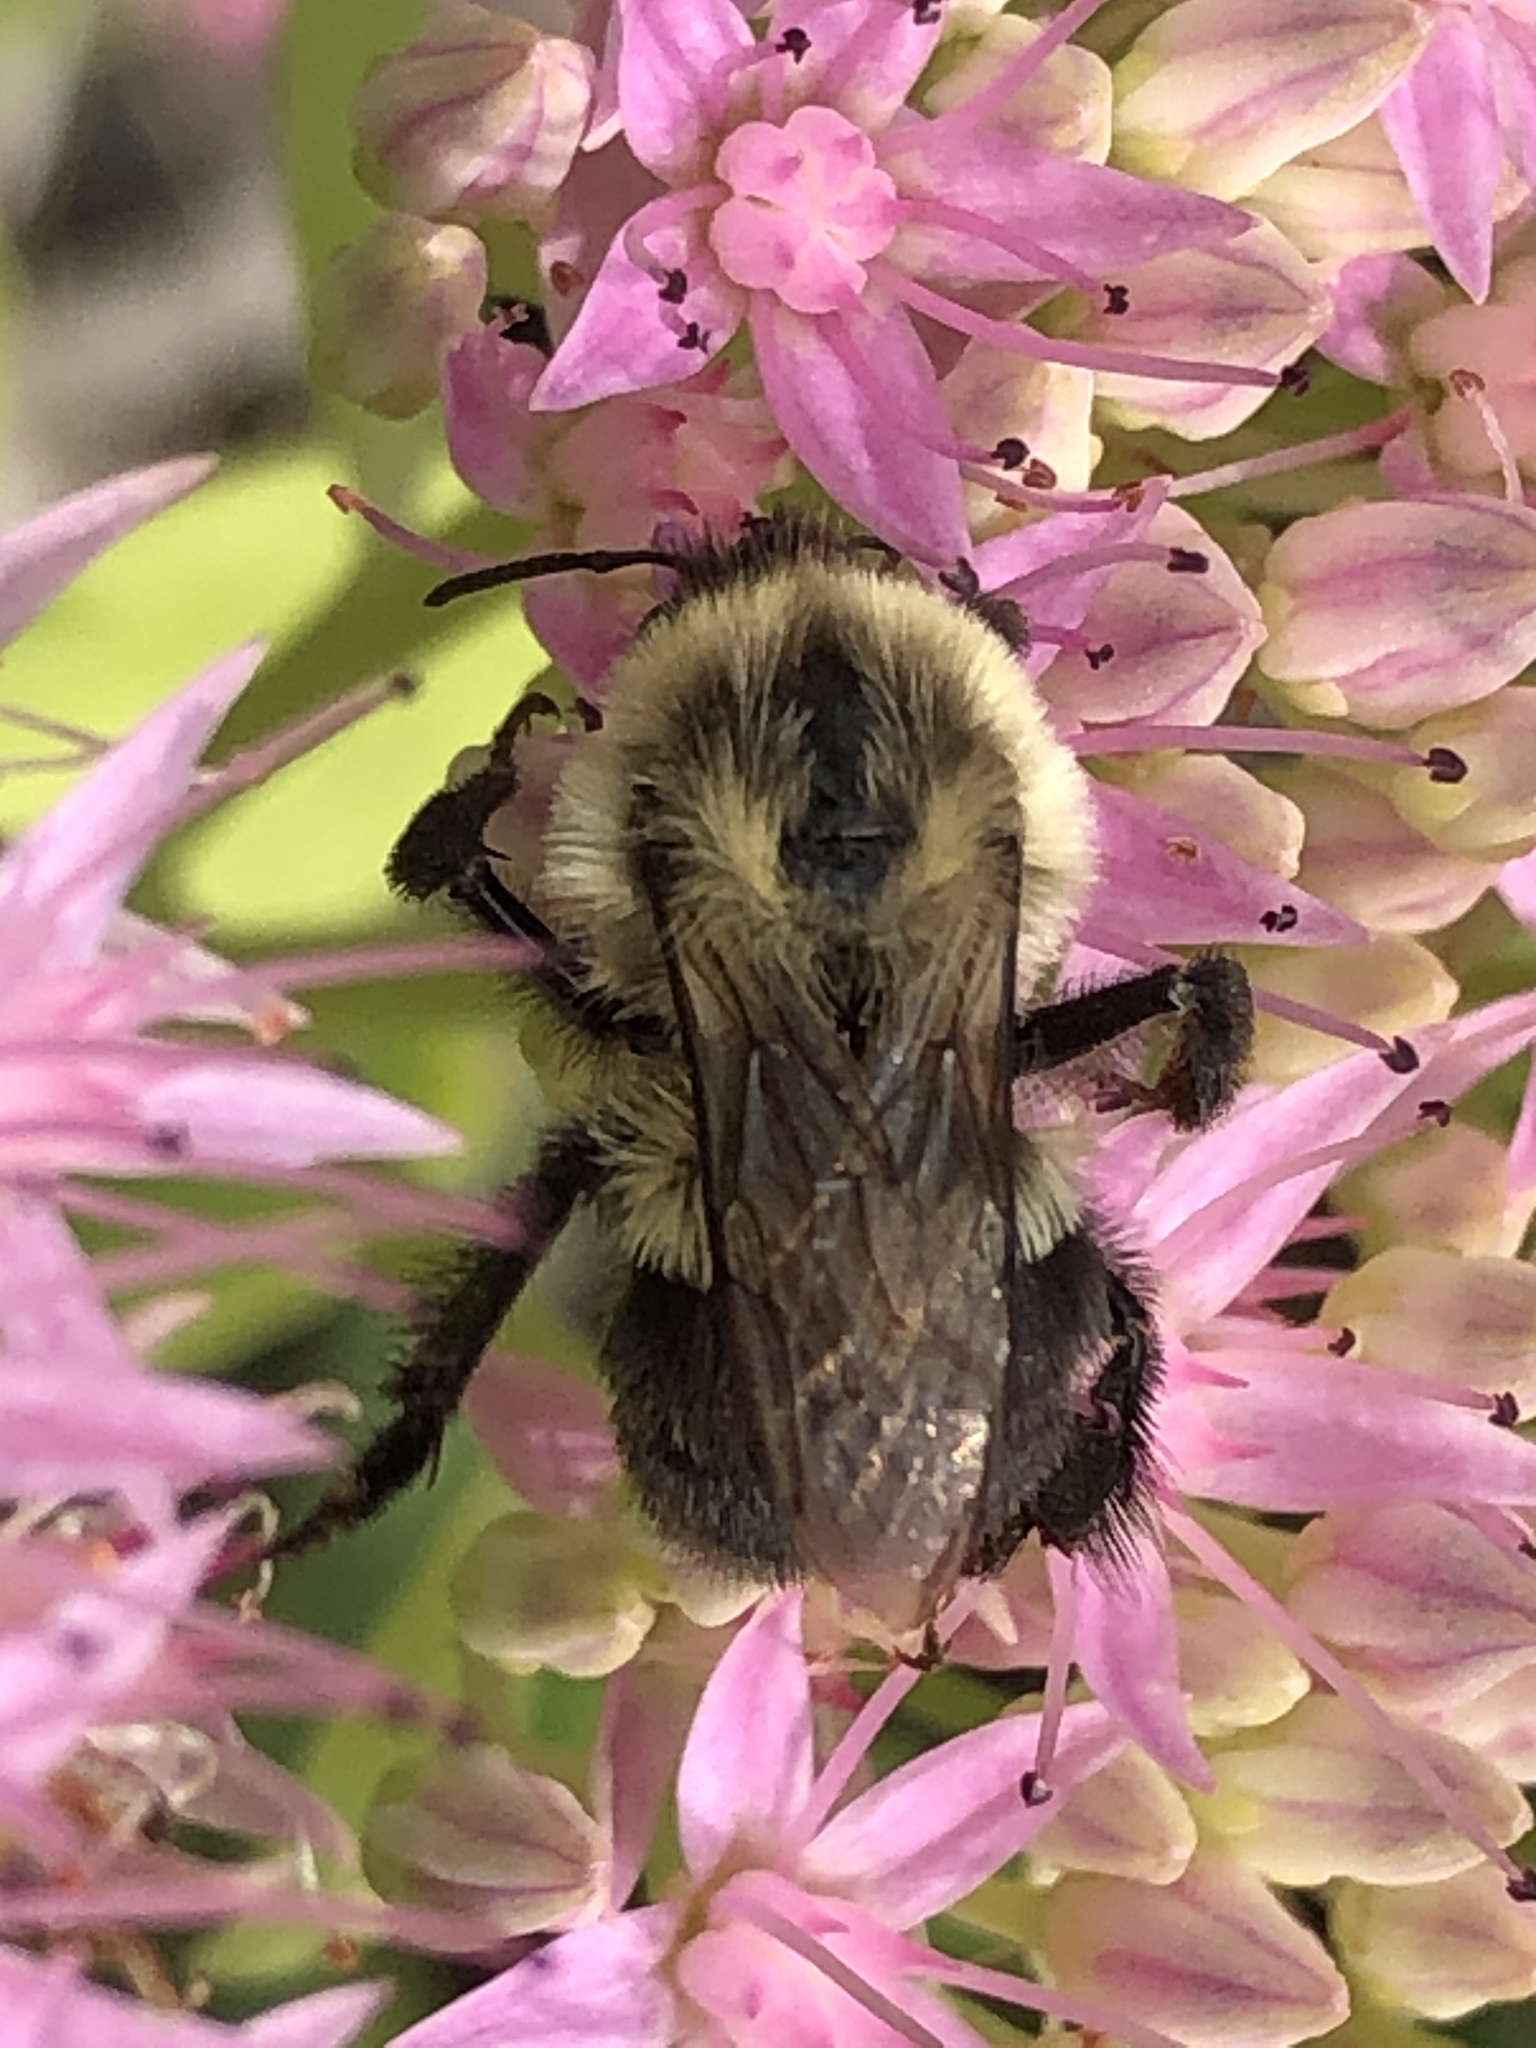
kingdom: Animalia
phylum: Arthropoda
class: Insecta
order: Hymenoptera
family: Apidae
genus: Bombus
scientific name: Bombus impatiens
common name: Common eastern bumble bee
